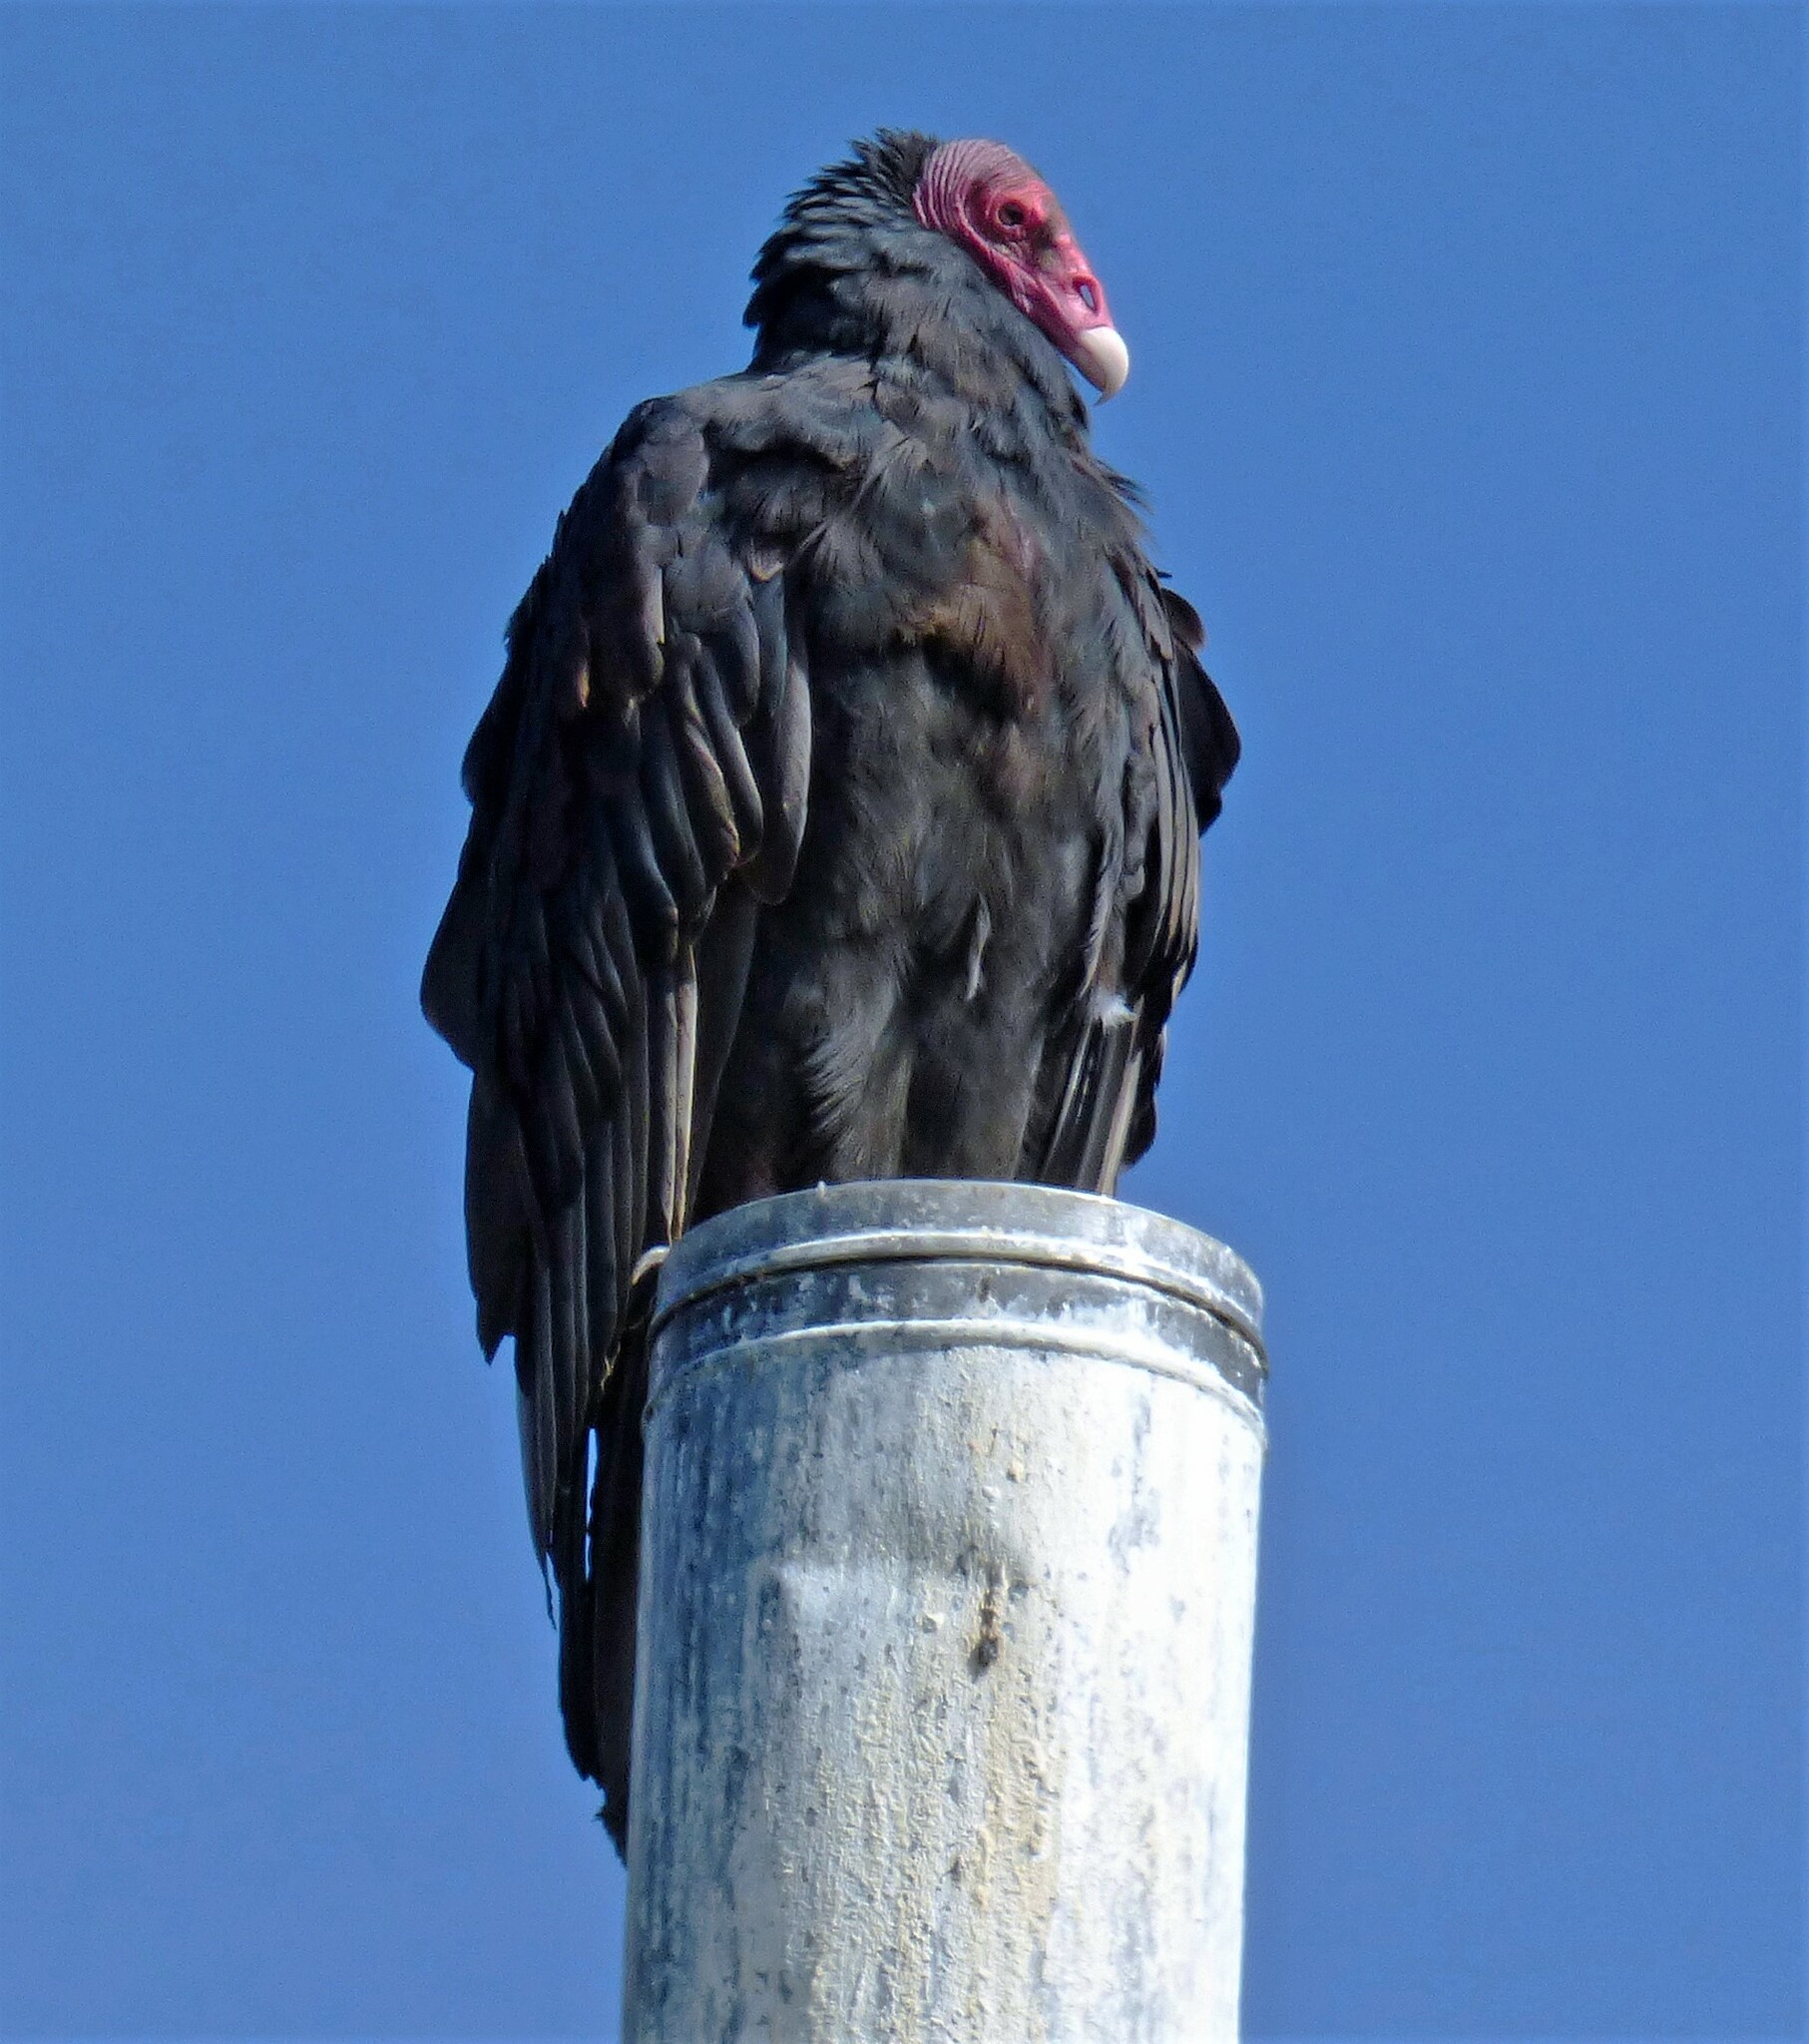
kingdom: Animalia
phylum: Chordata
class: Aves
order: Accipitriformes
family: Cathartidae
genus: Cathartes
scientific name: Cathartes aura
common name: Turkey vulture
